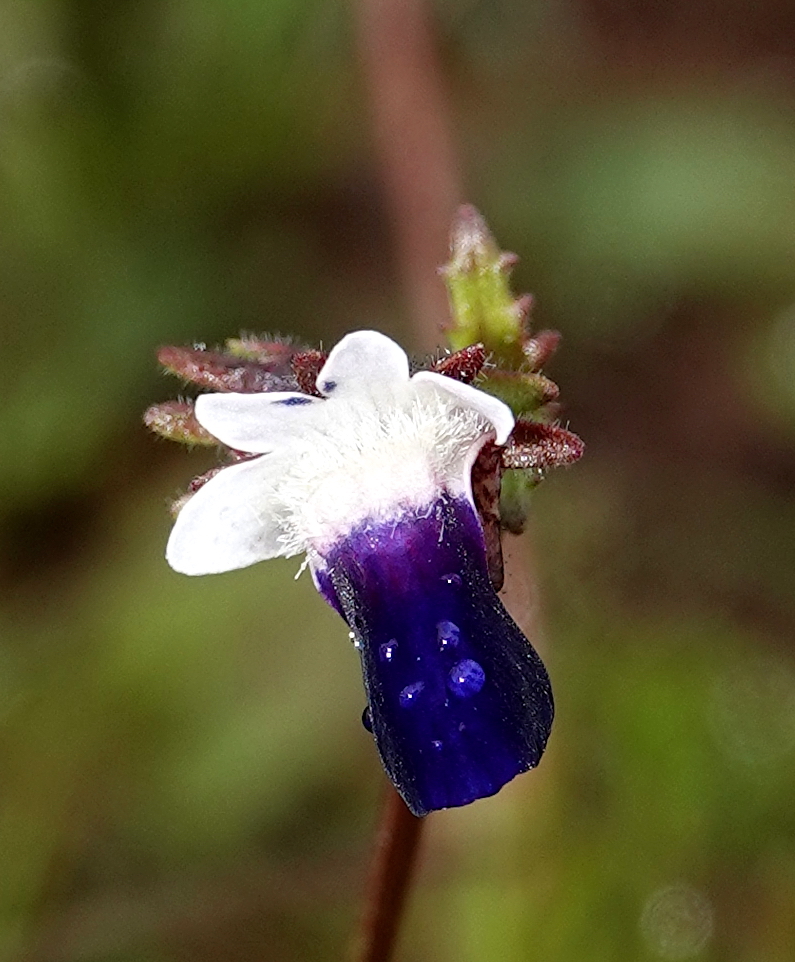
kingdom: Plantae
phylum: Tracheophyta
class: Magnoliopsida
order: Lamiales
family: Scrophulariaceae
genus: Nemesia
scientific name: Nemesia barbata
